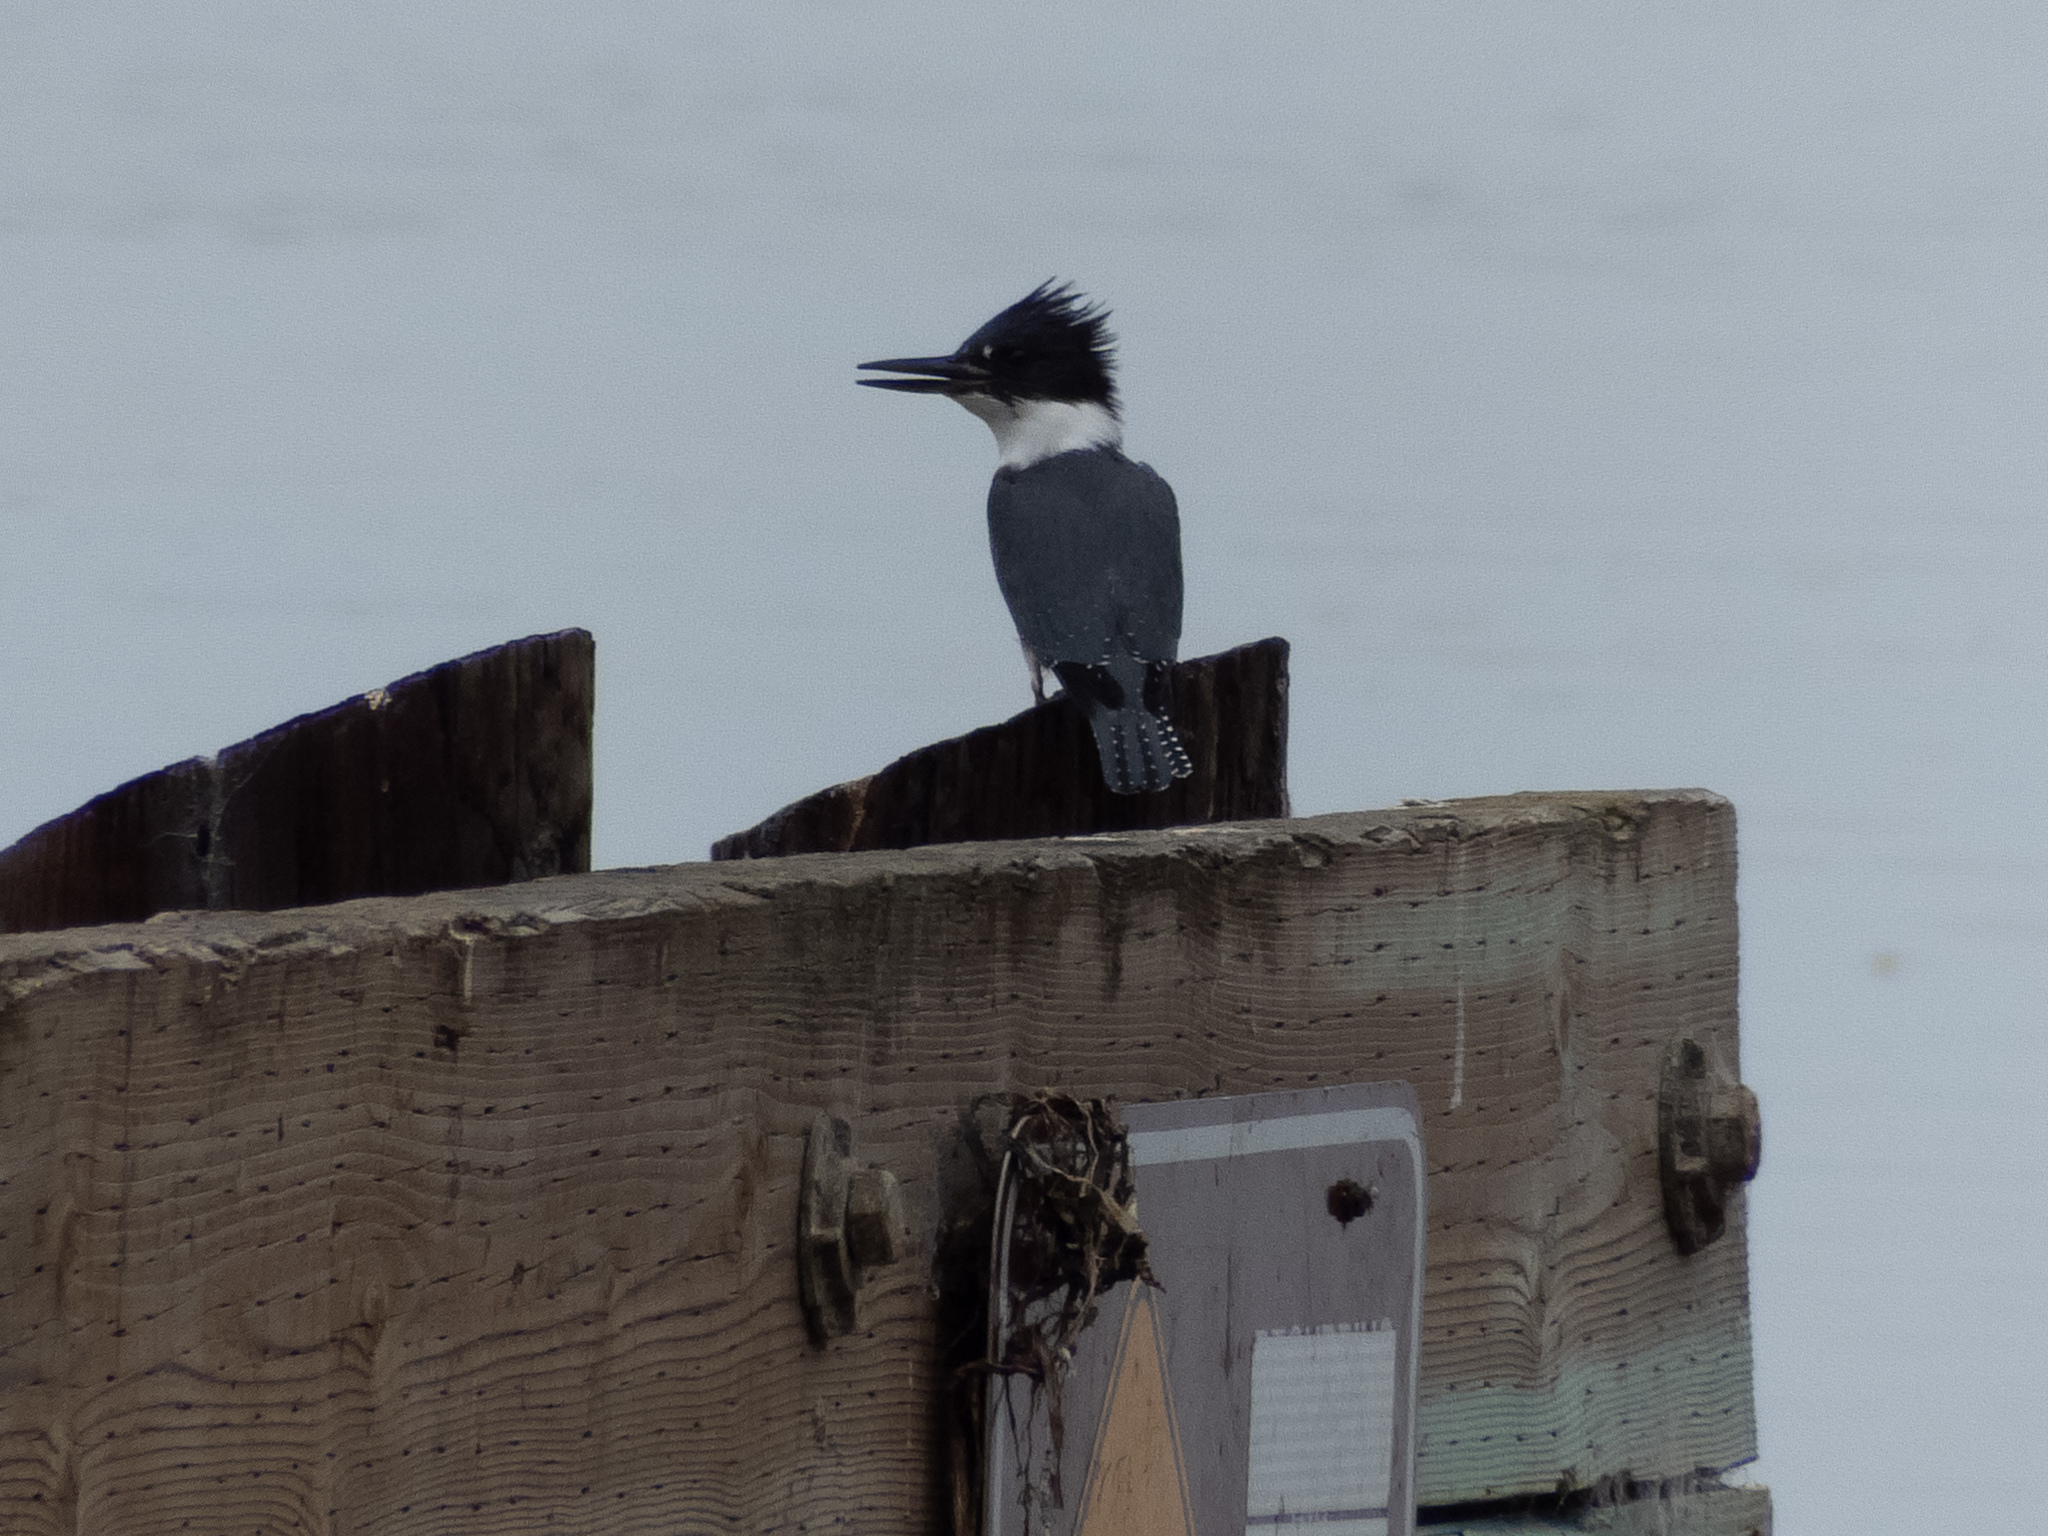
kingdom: Animalia
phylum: Chordata
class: Aves
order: Coraciiformes
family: Alcedinidae
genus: Megaceryle
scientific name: Megaceryle alcyon
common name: Belted kingfisher
